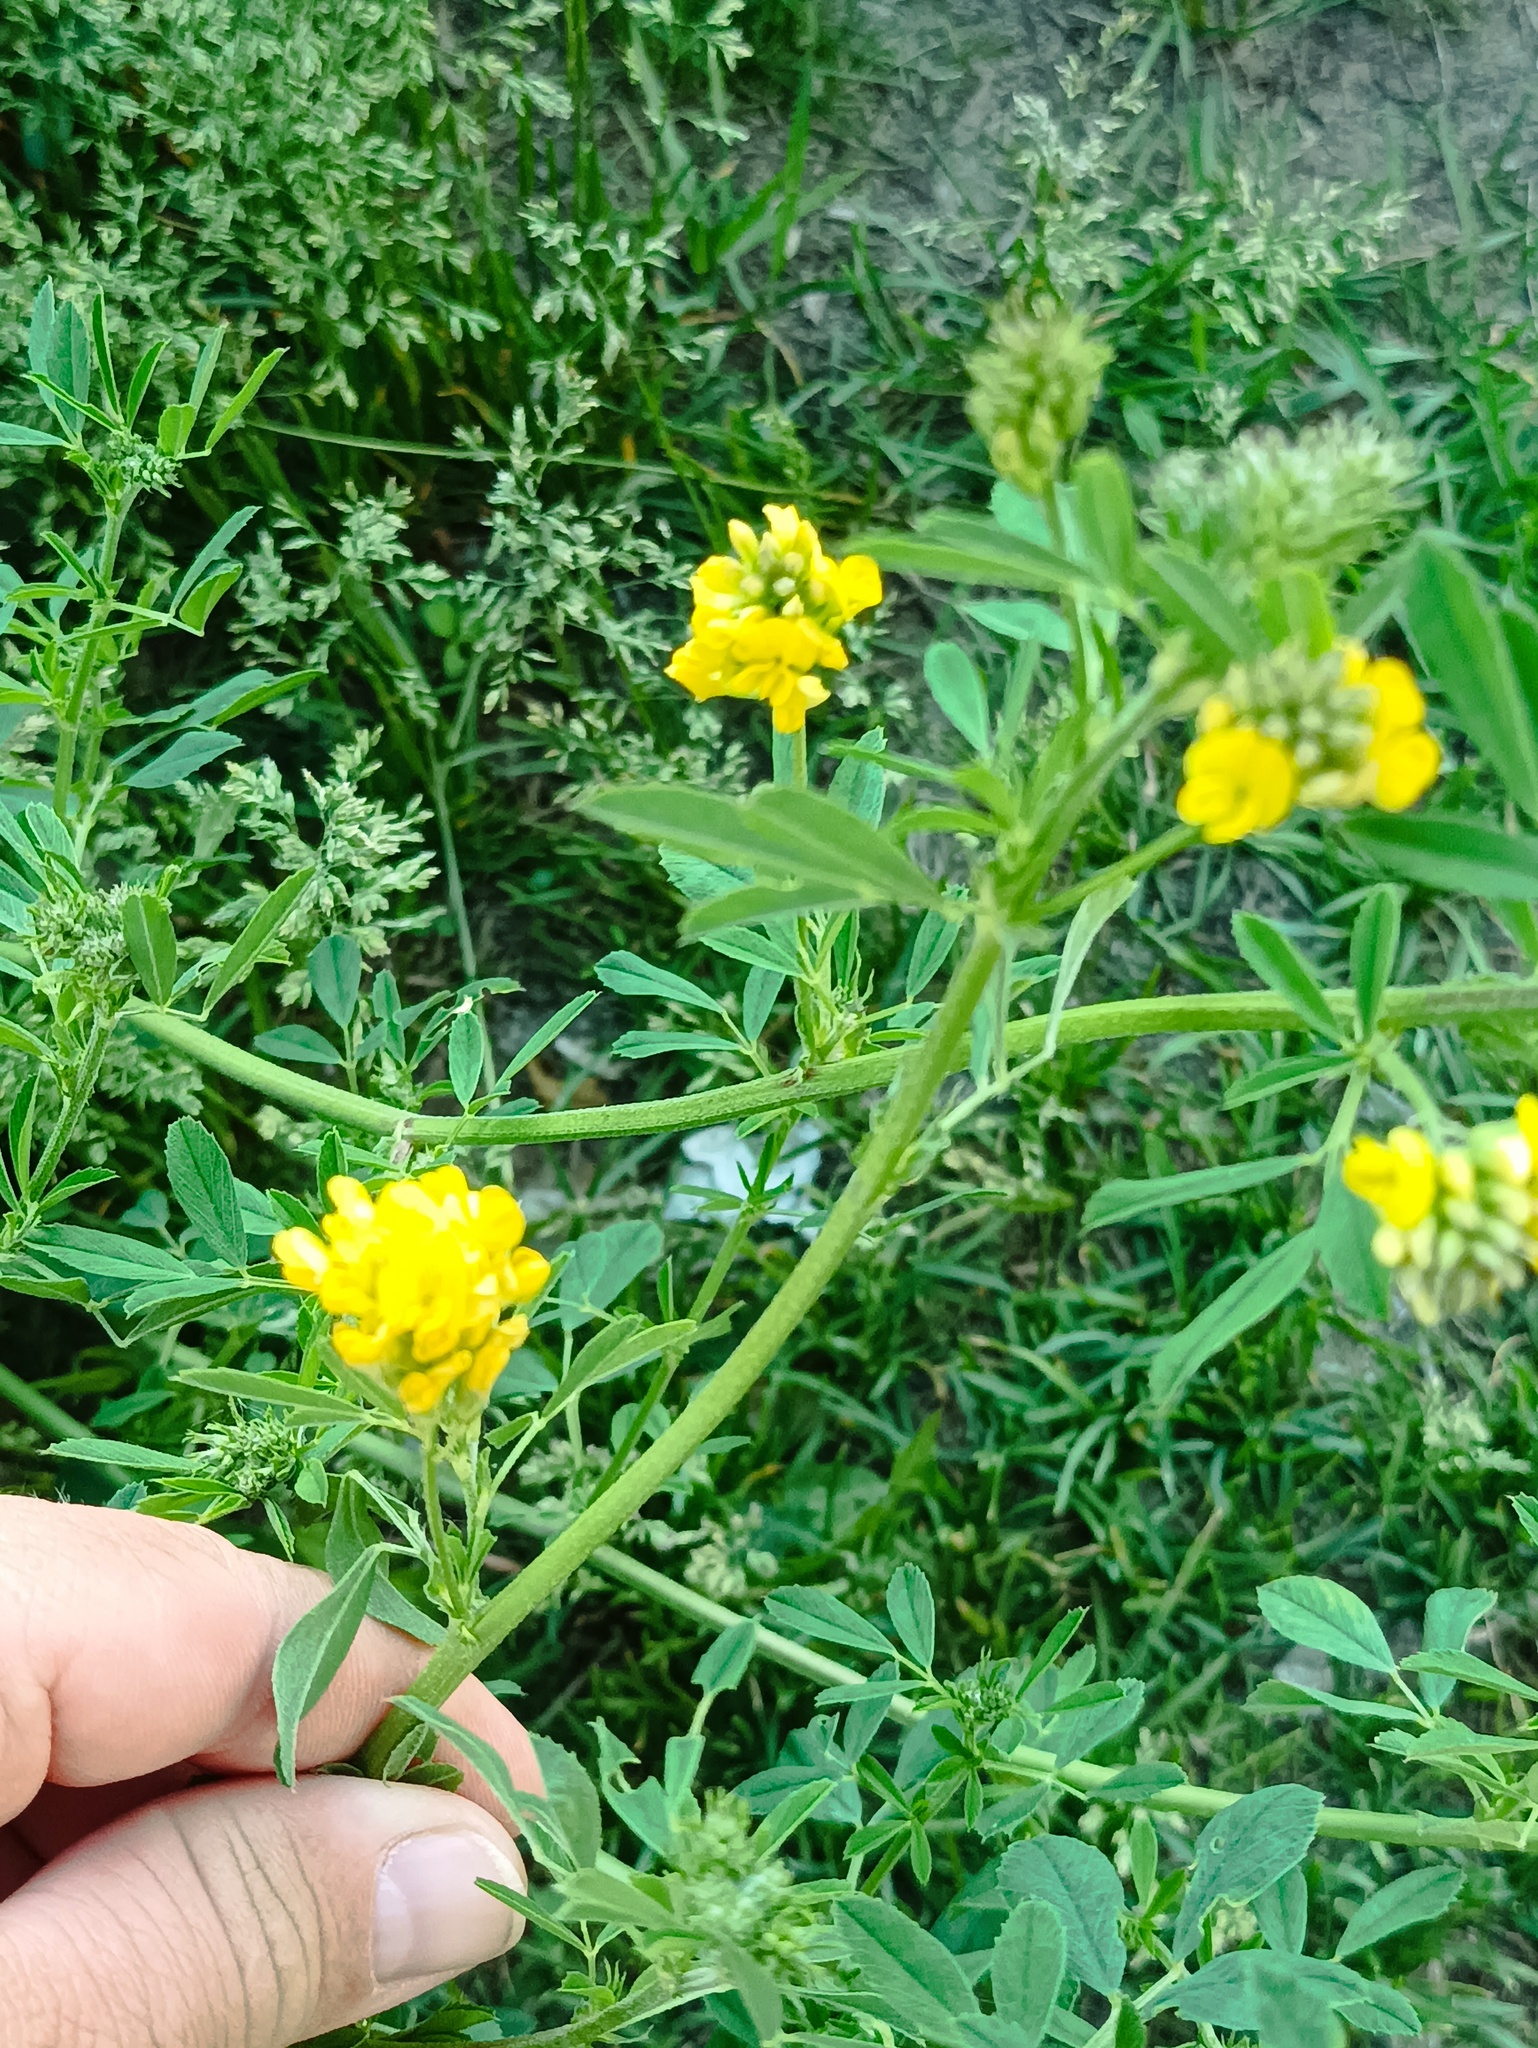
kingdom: Plantae
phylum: Tracheophyta
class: Magnoliopsida
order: Fabales
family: Fabaceae
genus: Medicago
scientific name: Medicago falcata
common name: Sickle medick
